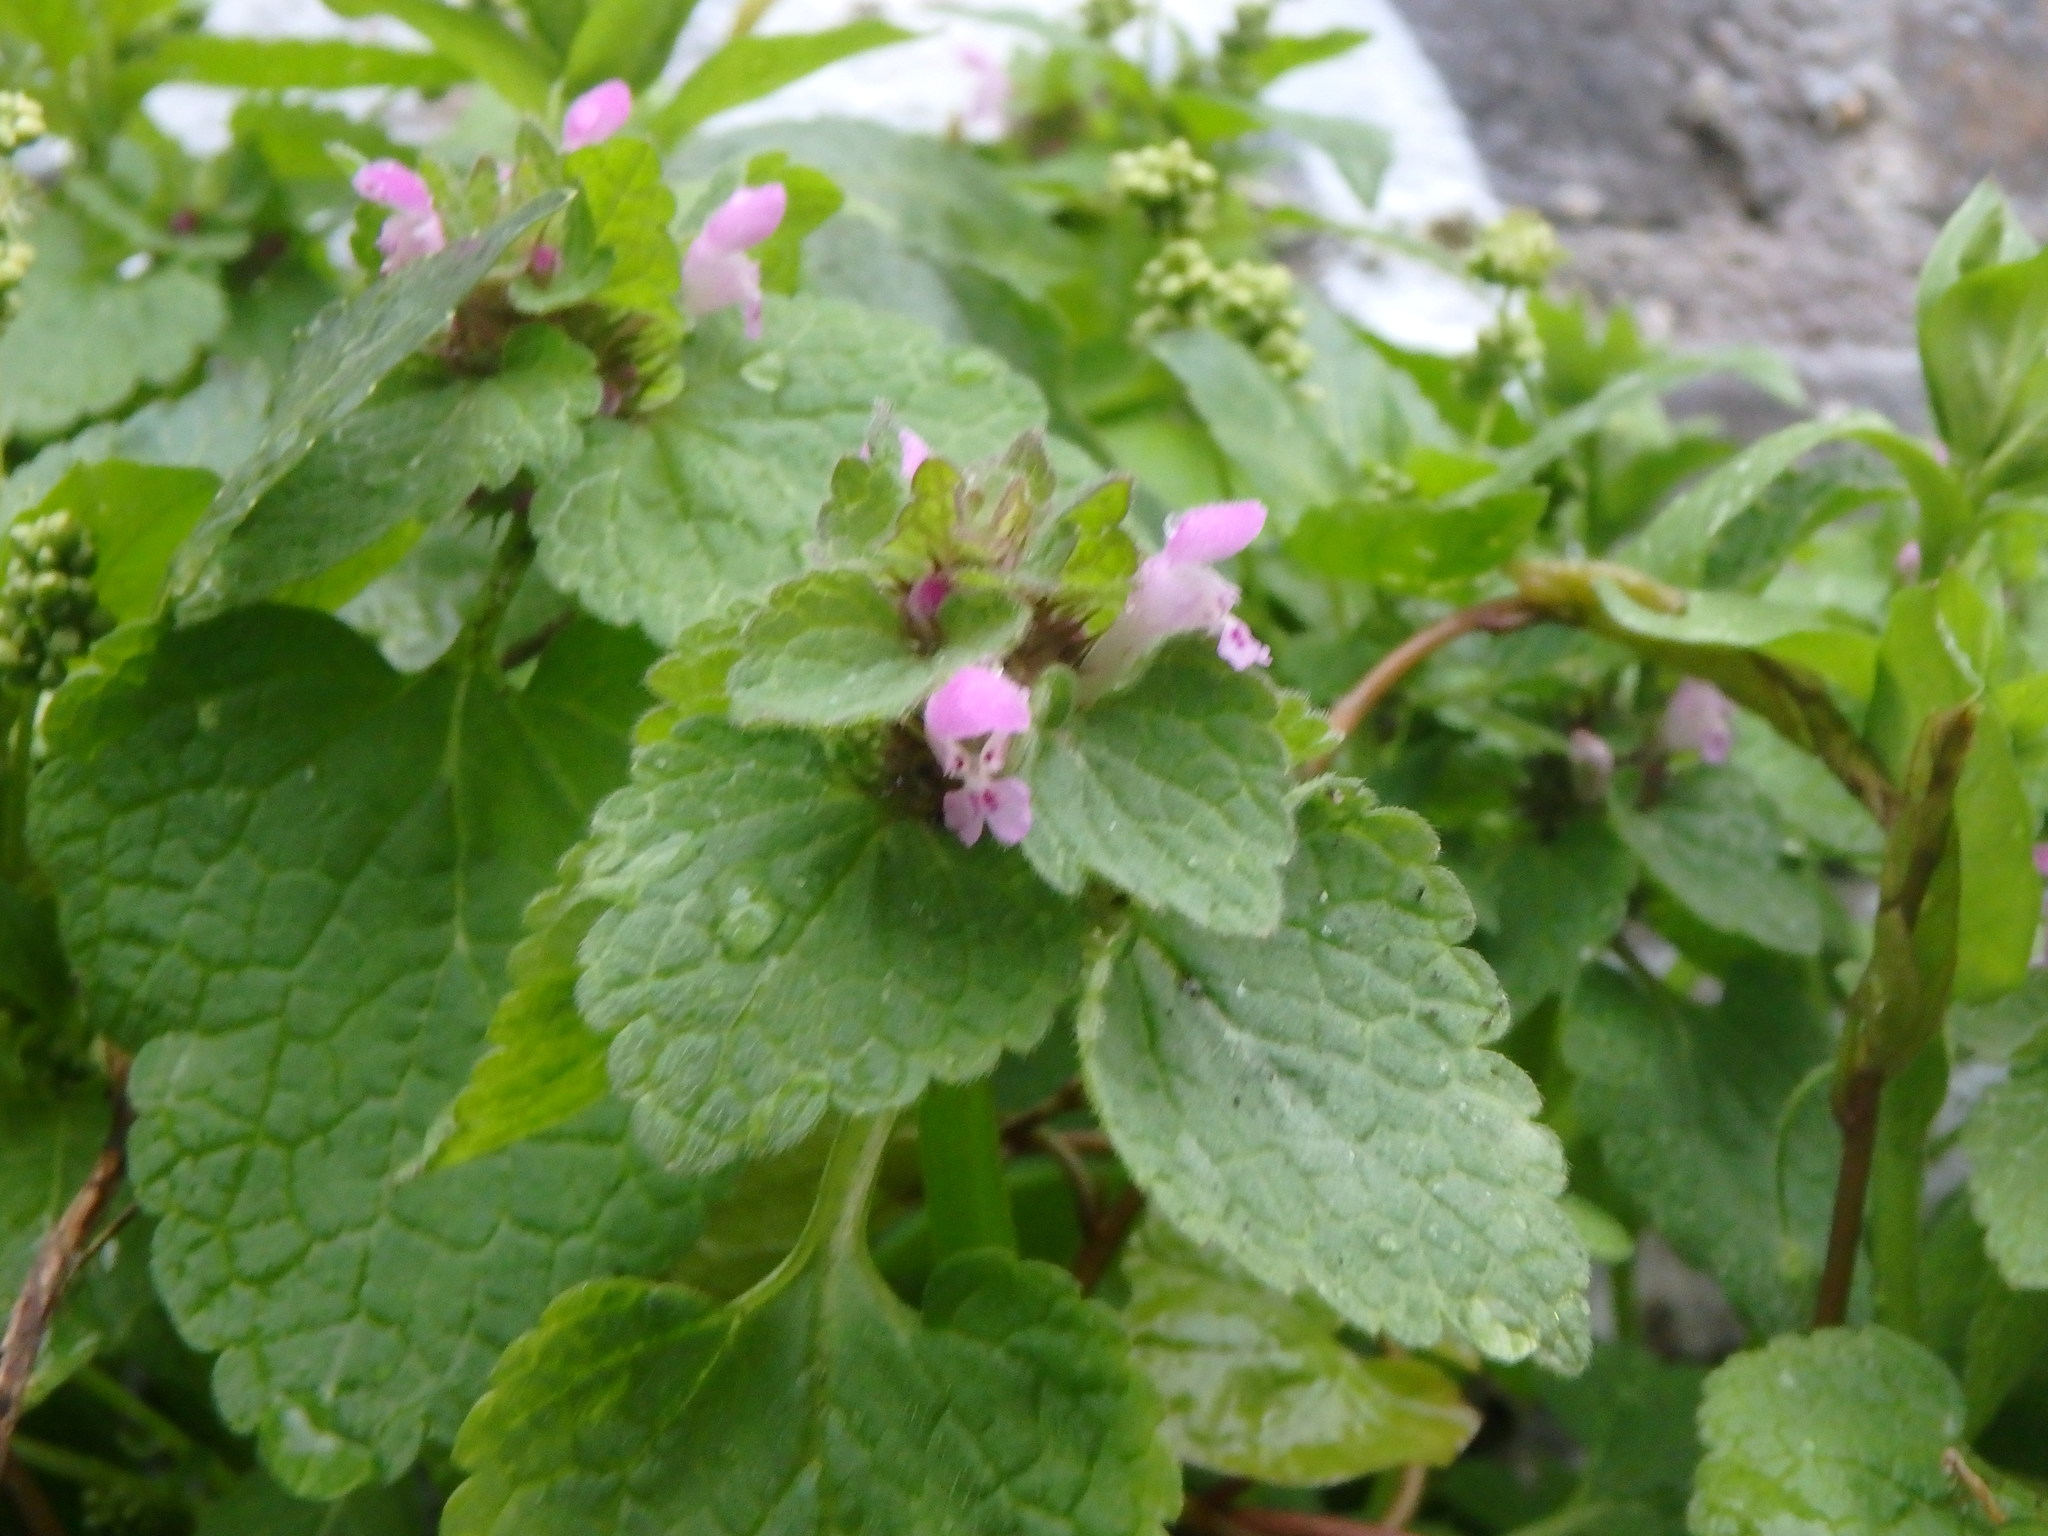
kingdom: Plantae
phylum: Tracheophyta
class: Magnoliopsida
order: Lamiales
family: Lamiaceae
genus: Lamium
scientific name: Lamium purpureum
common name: Red dead-nettle
